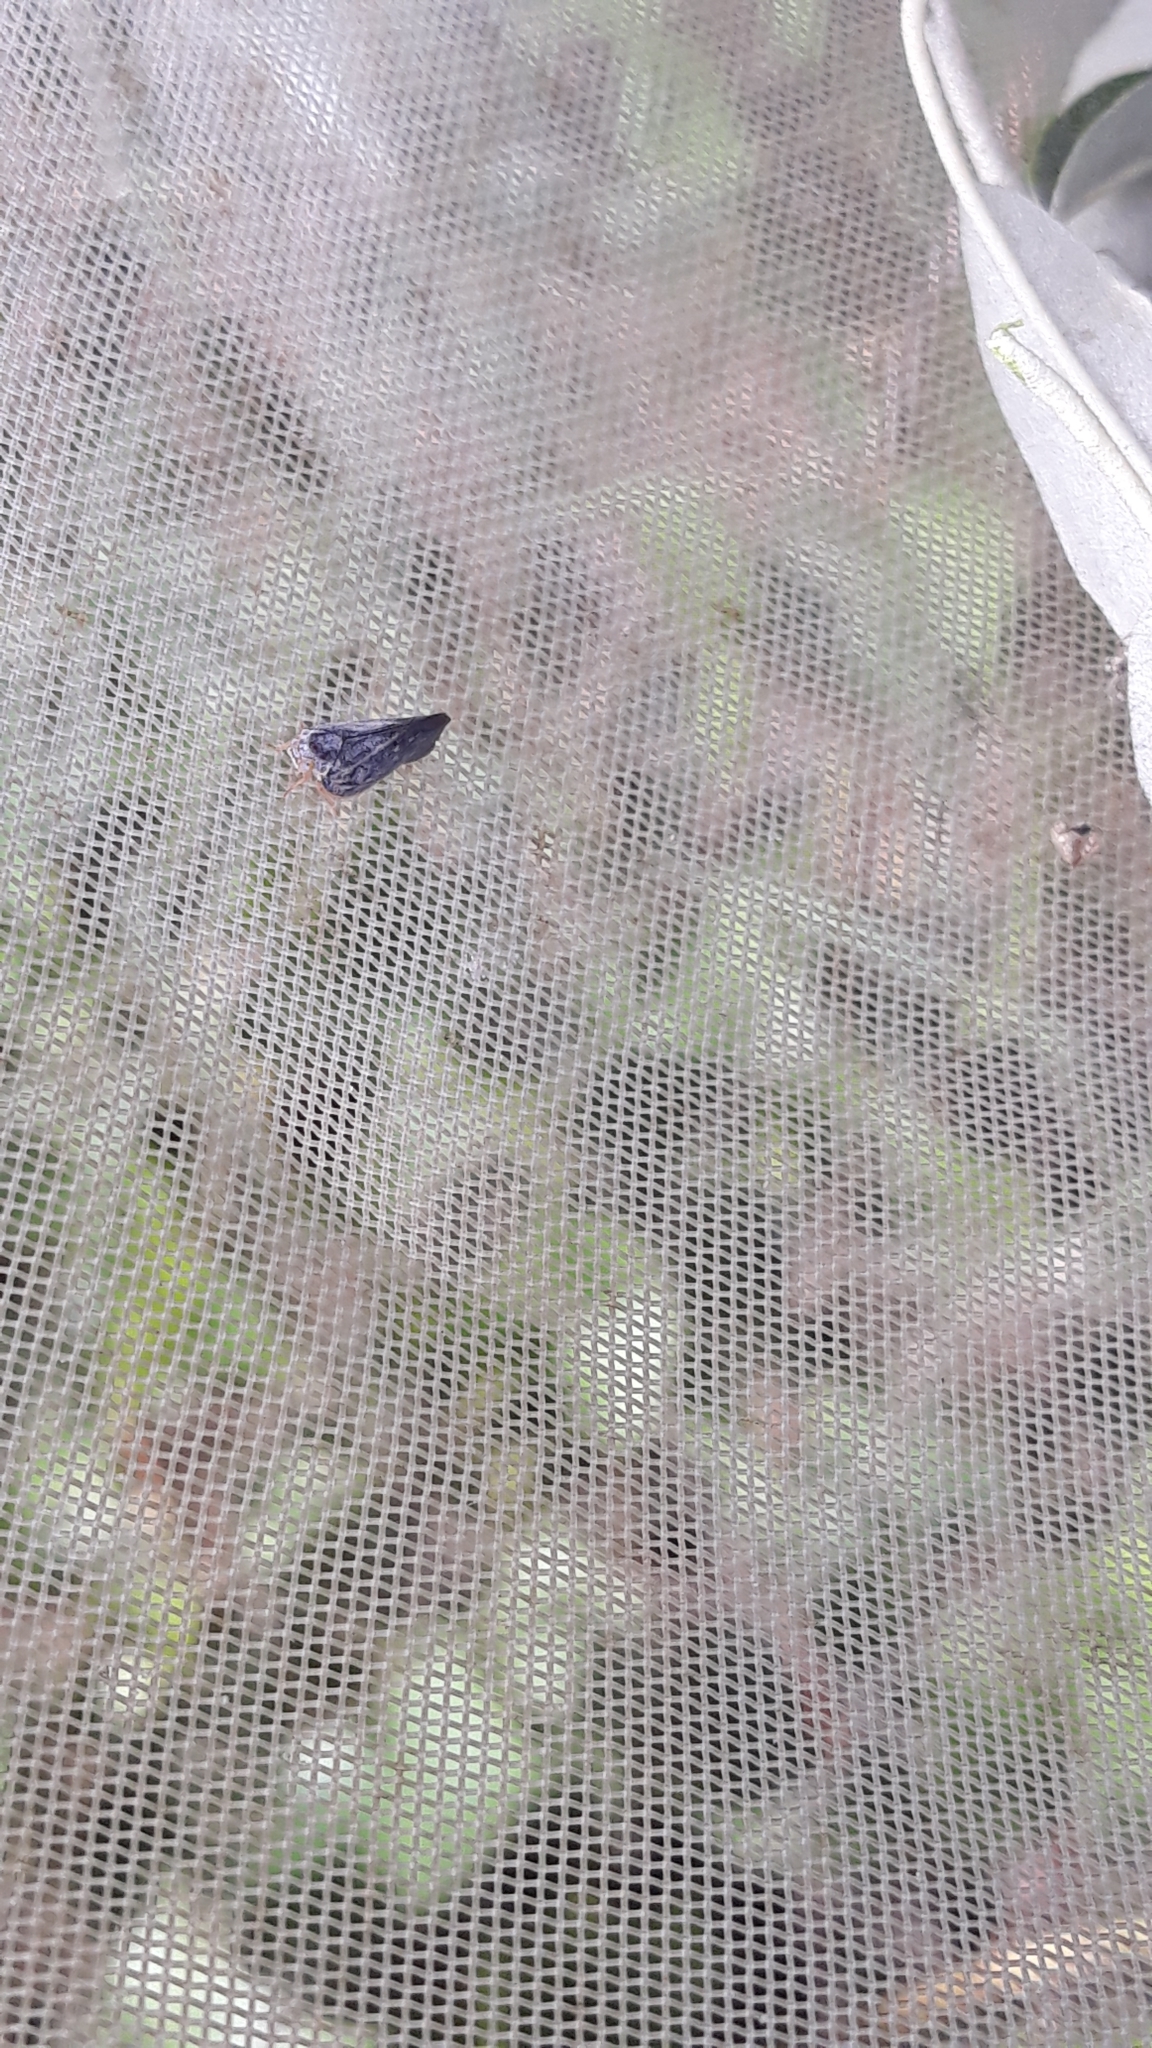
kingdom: Animalia
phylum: Arthropoda
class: Insecta
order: Hemiptera
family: Flatidae
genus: Metcalfa
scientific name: Metcalfa pruinosa
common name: Citrus flatid planthopper
